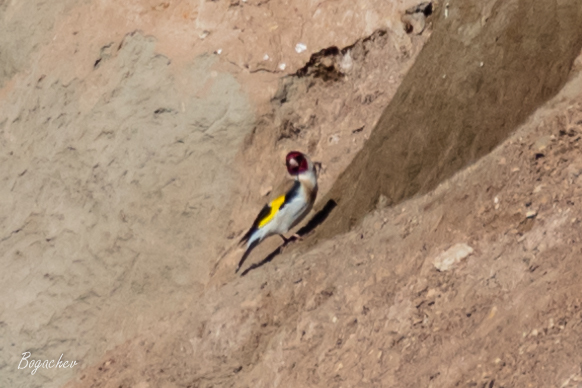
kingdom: Animalia
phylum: Chordata
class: Aves
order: Passeriformes
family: Fringillidae
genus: Carduelis
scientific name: Carduelis carduelis
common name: European goldfinch
